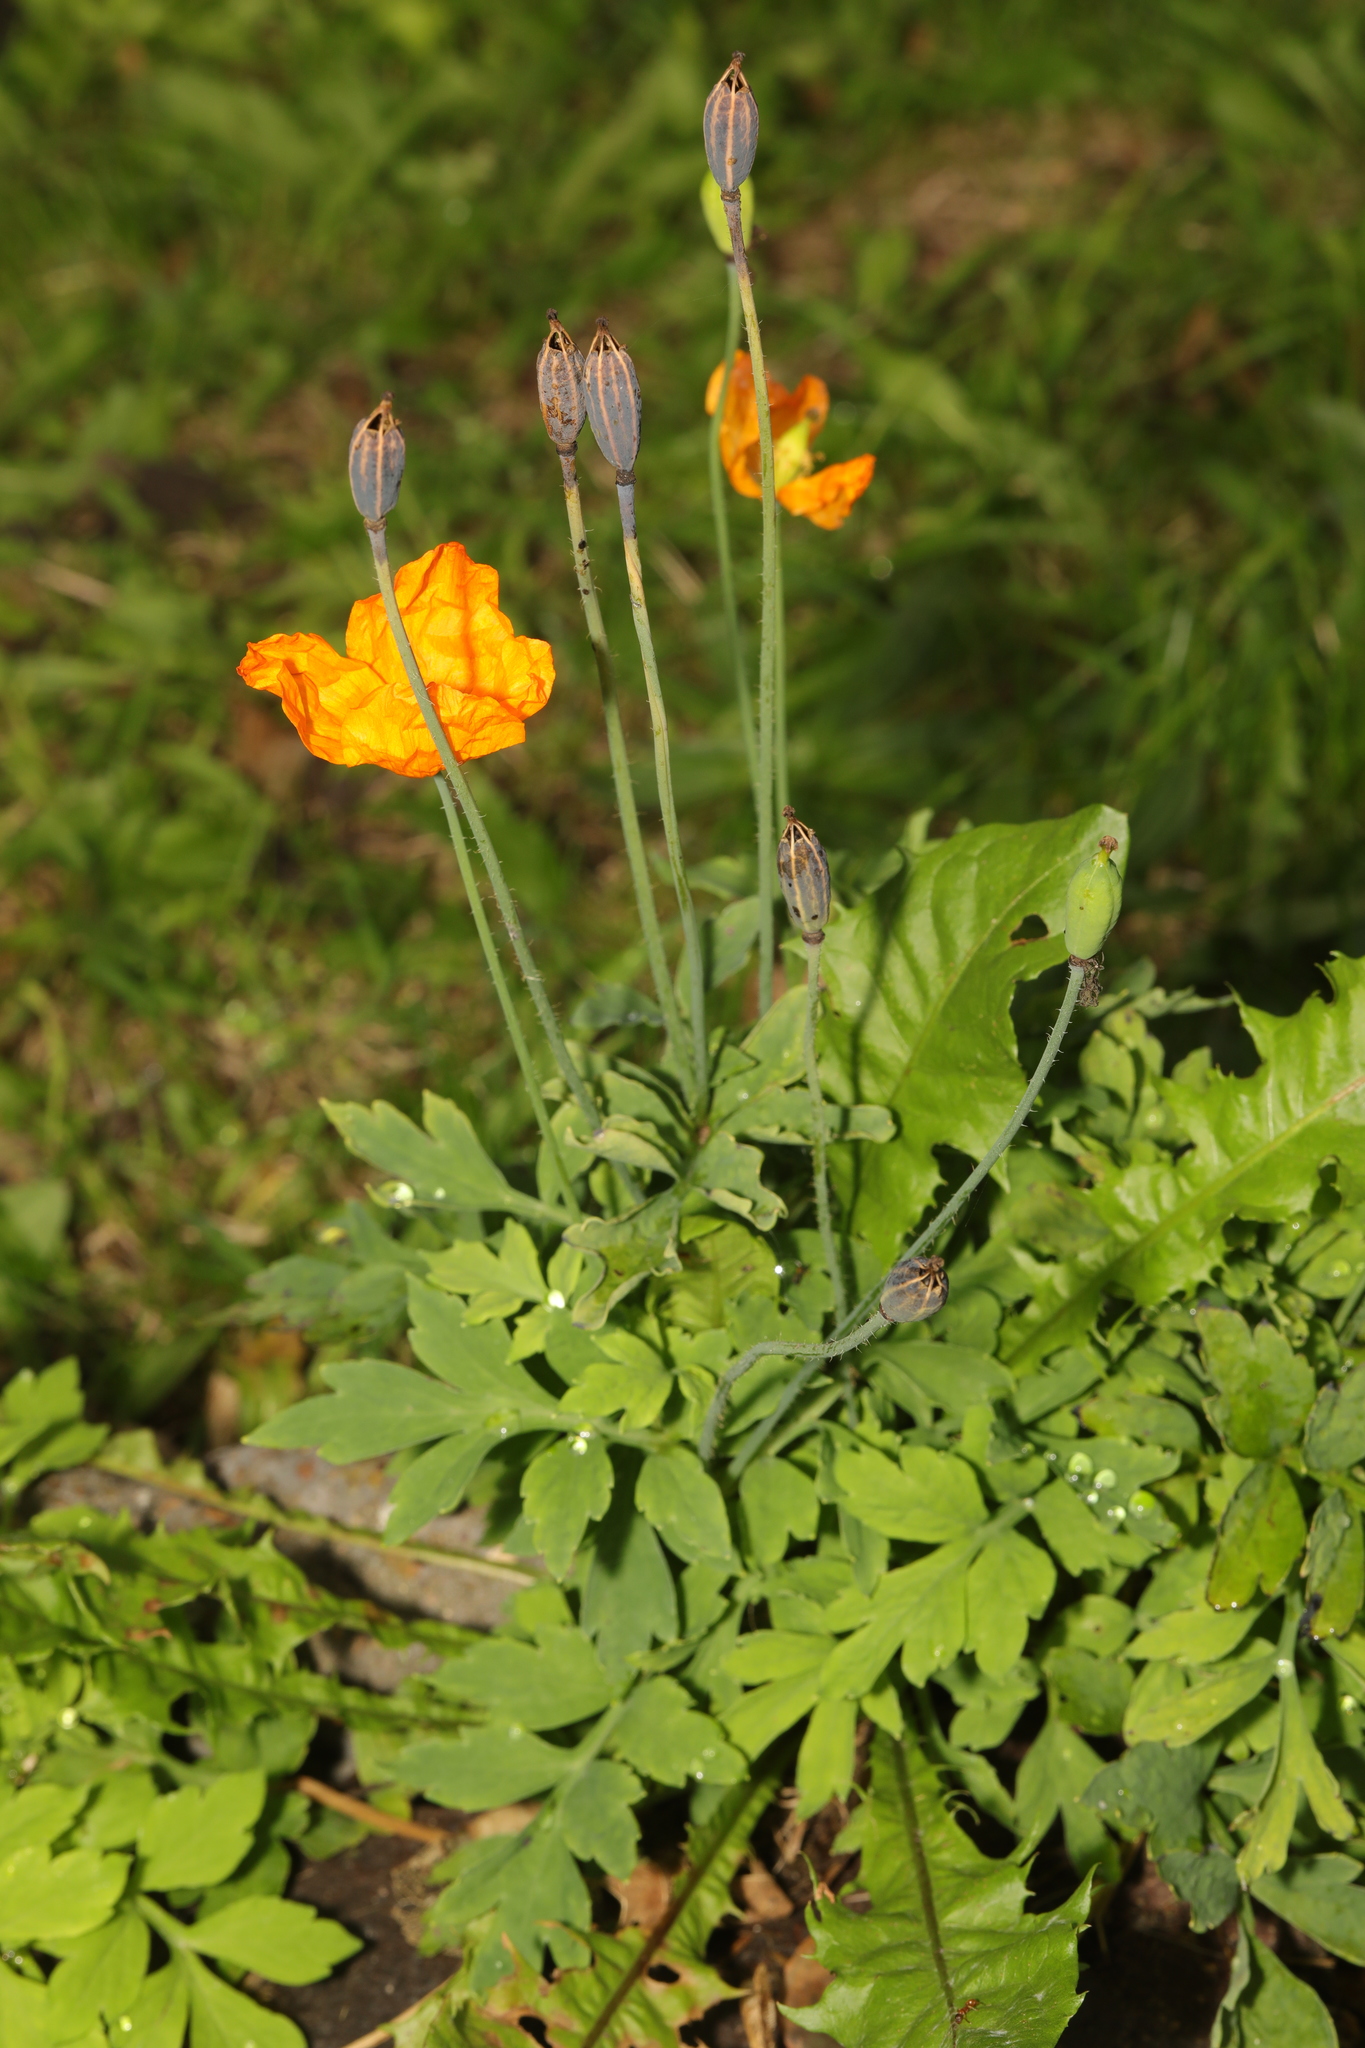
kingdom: Plantae
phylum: Tracheophyta
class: Magnoliopsida
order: Ranunculales
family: Papaveraceae
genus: Papaver
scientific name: Papaver cambricum
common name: Poppy
